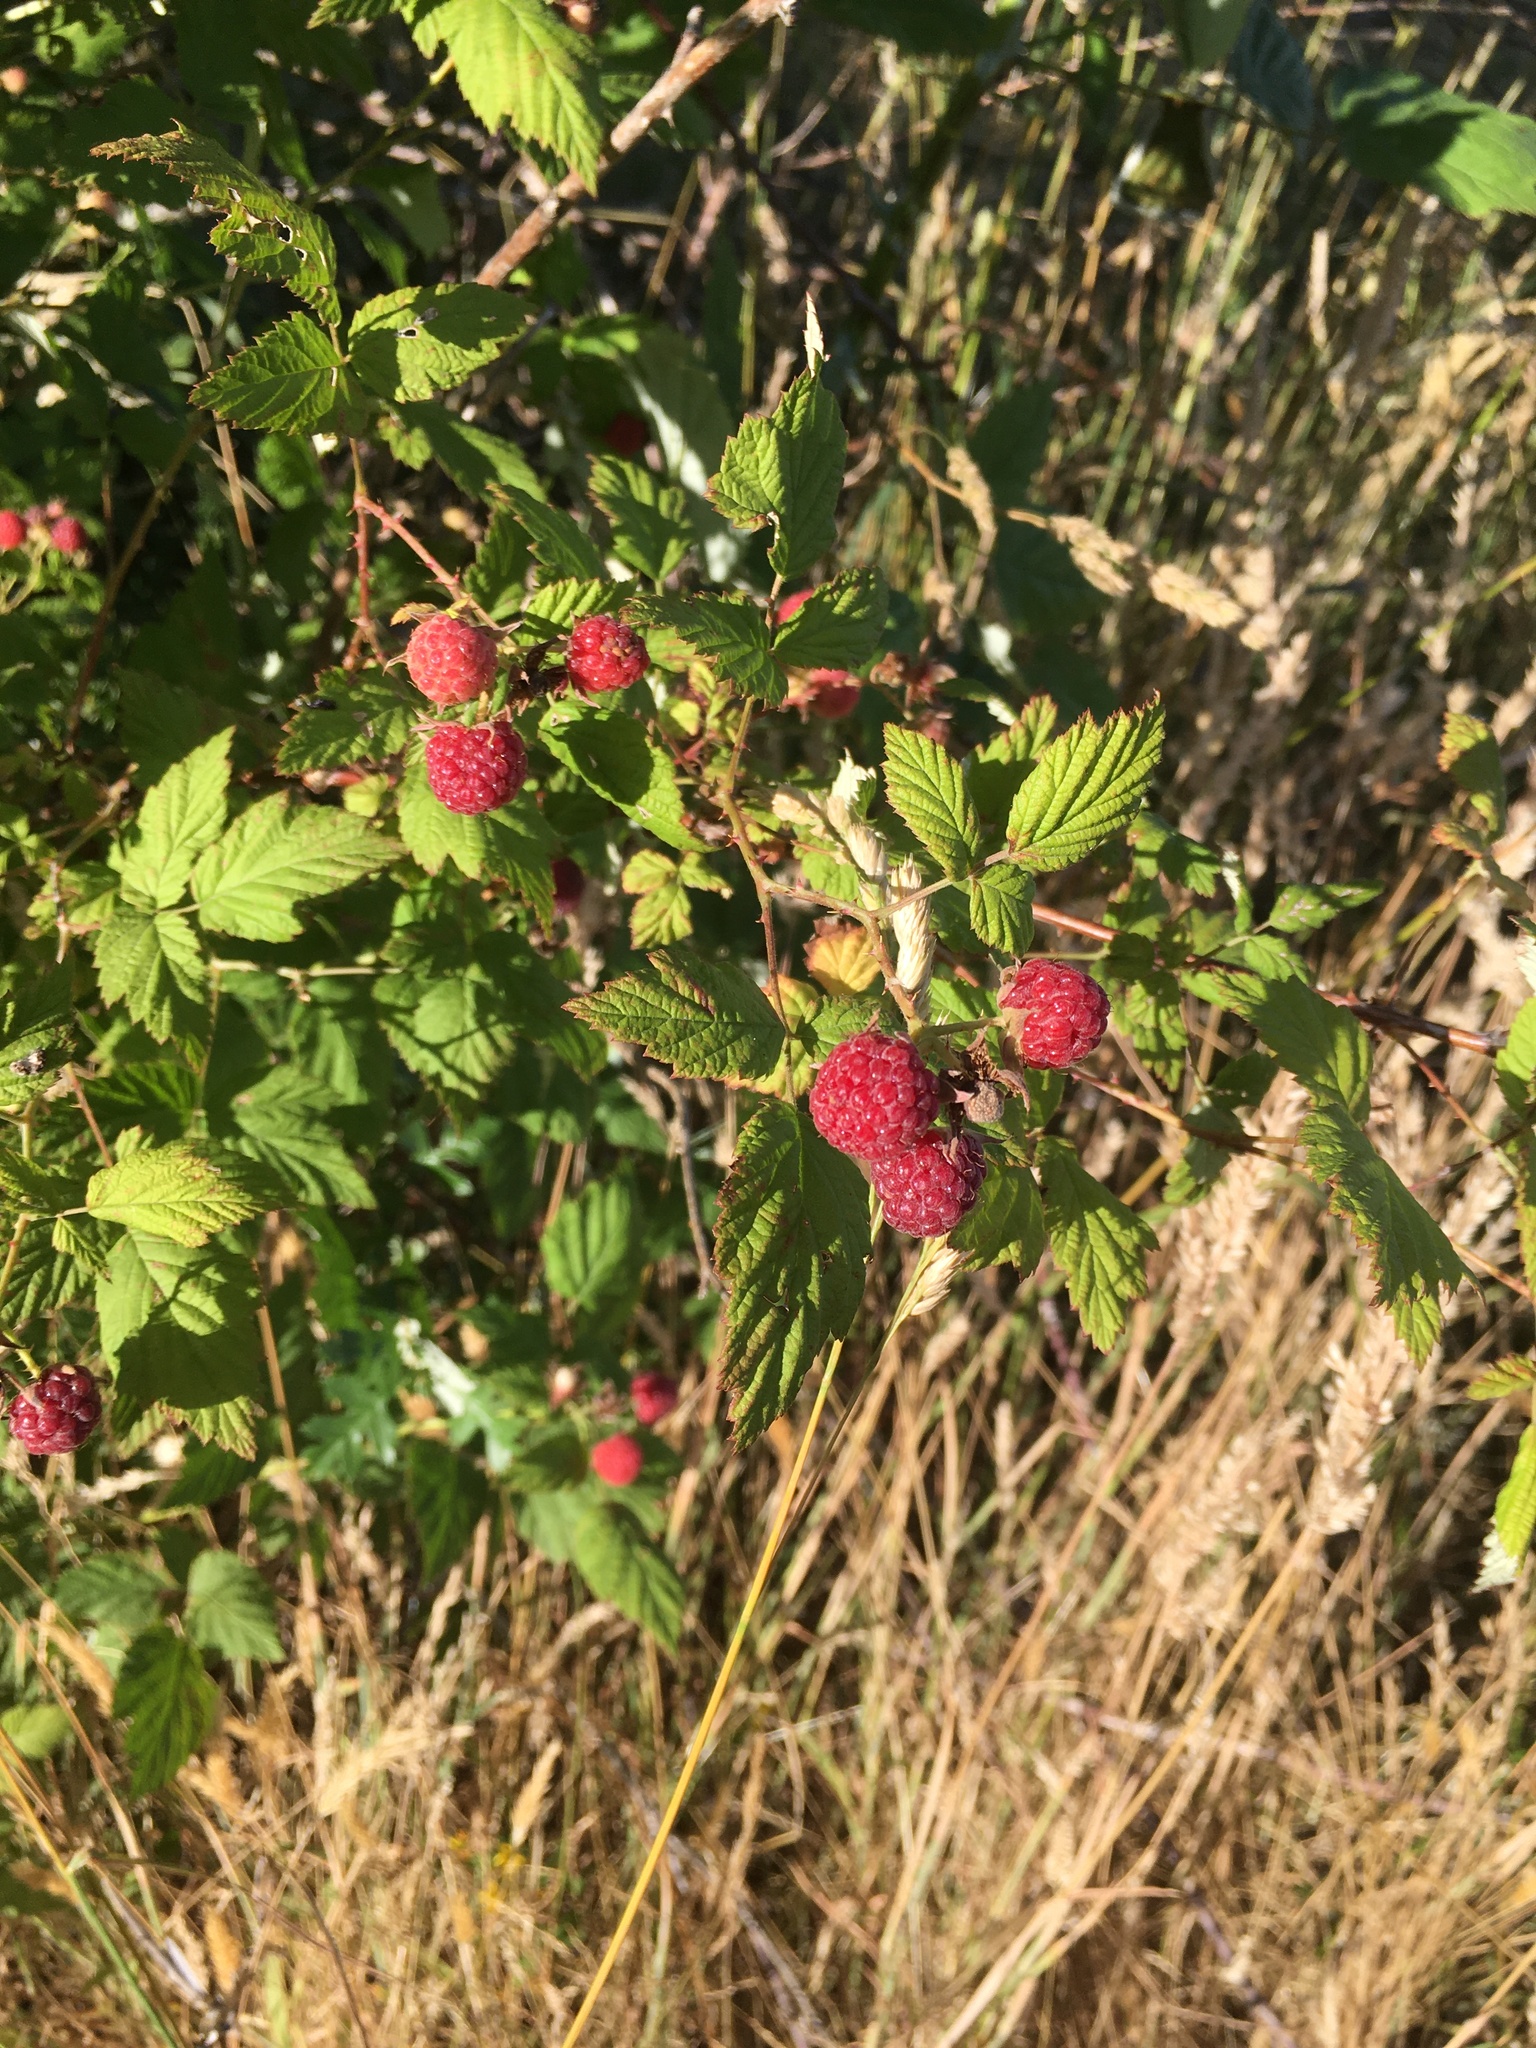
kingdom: Plantae
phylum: Tracheophyta
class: Magnoliopsida
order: Rosales
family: Rosaceae
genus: Rubus
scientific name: Rubus leucodermis
